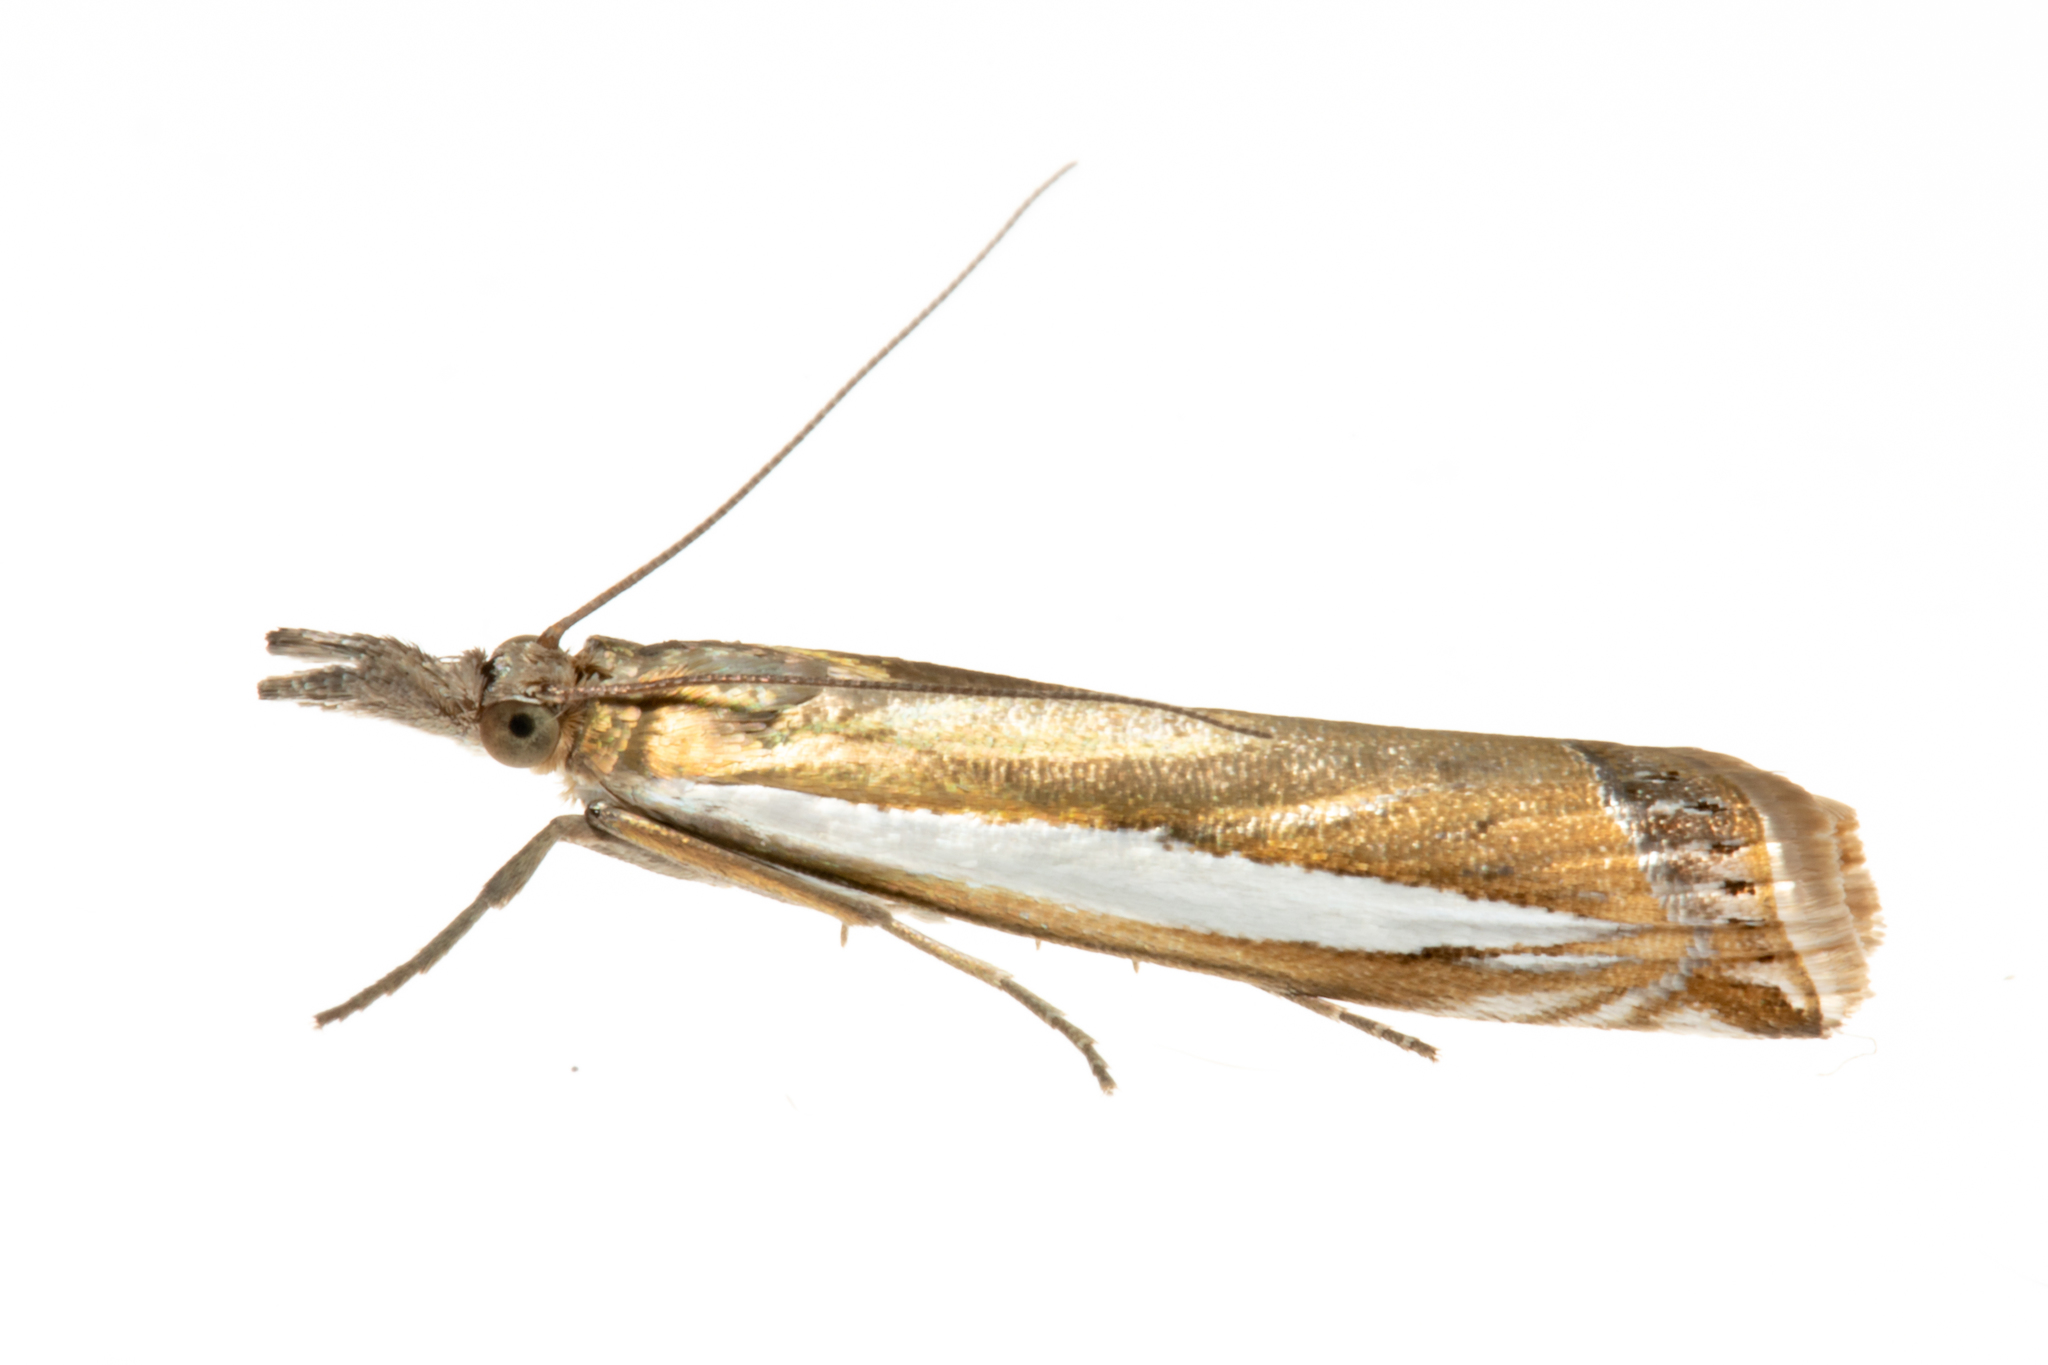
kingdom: Animalia
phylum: Arthropoda
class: Insecta
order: Lepidoptera
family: Crambidae
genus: Crambus
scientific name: Crambus praefectellus
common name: Common grass-veneer
